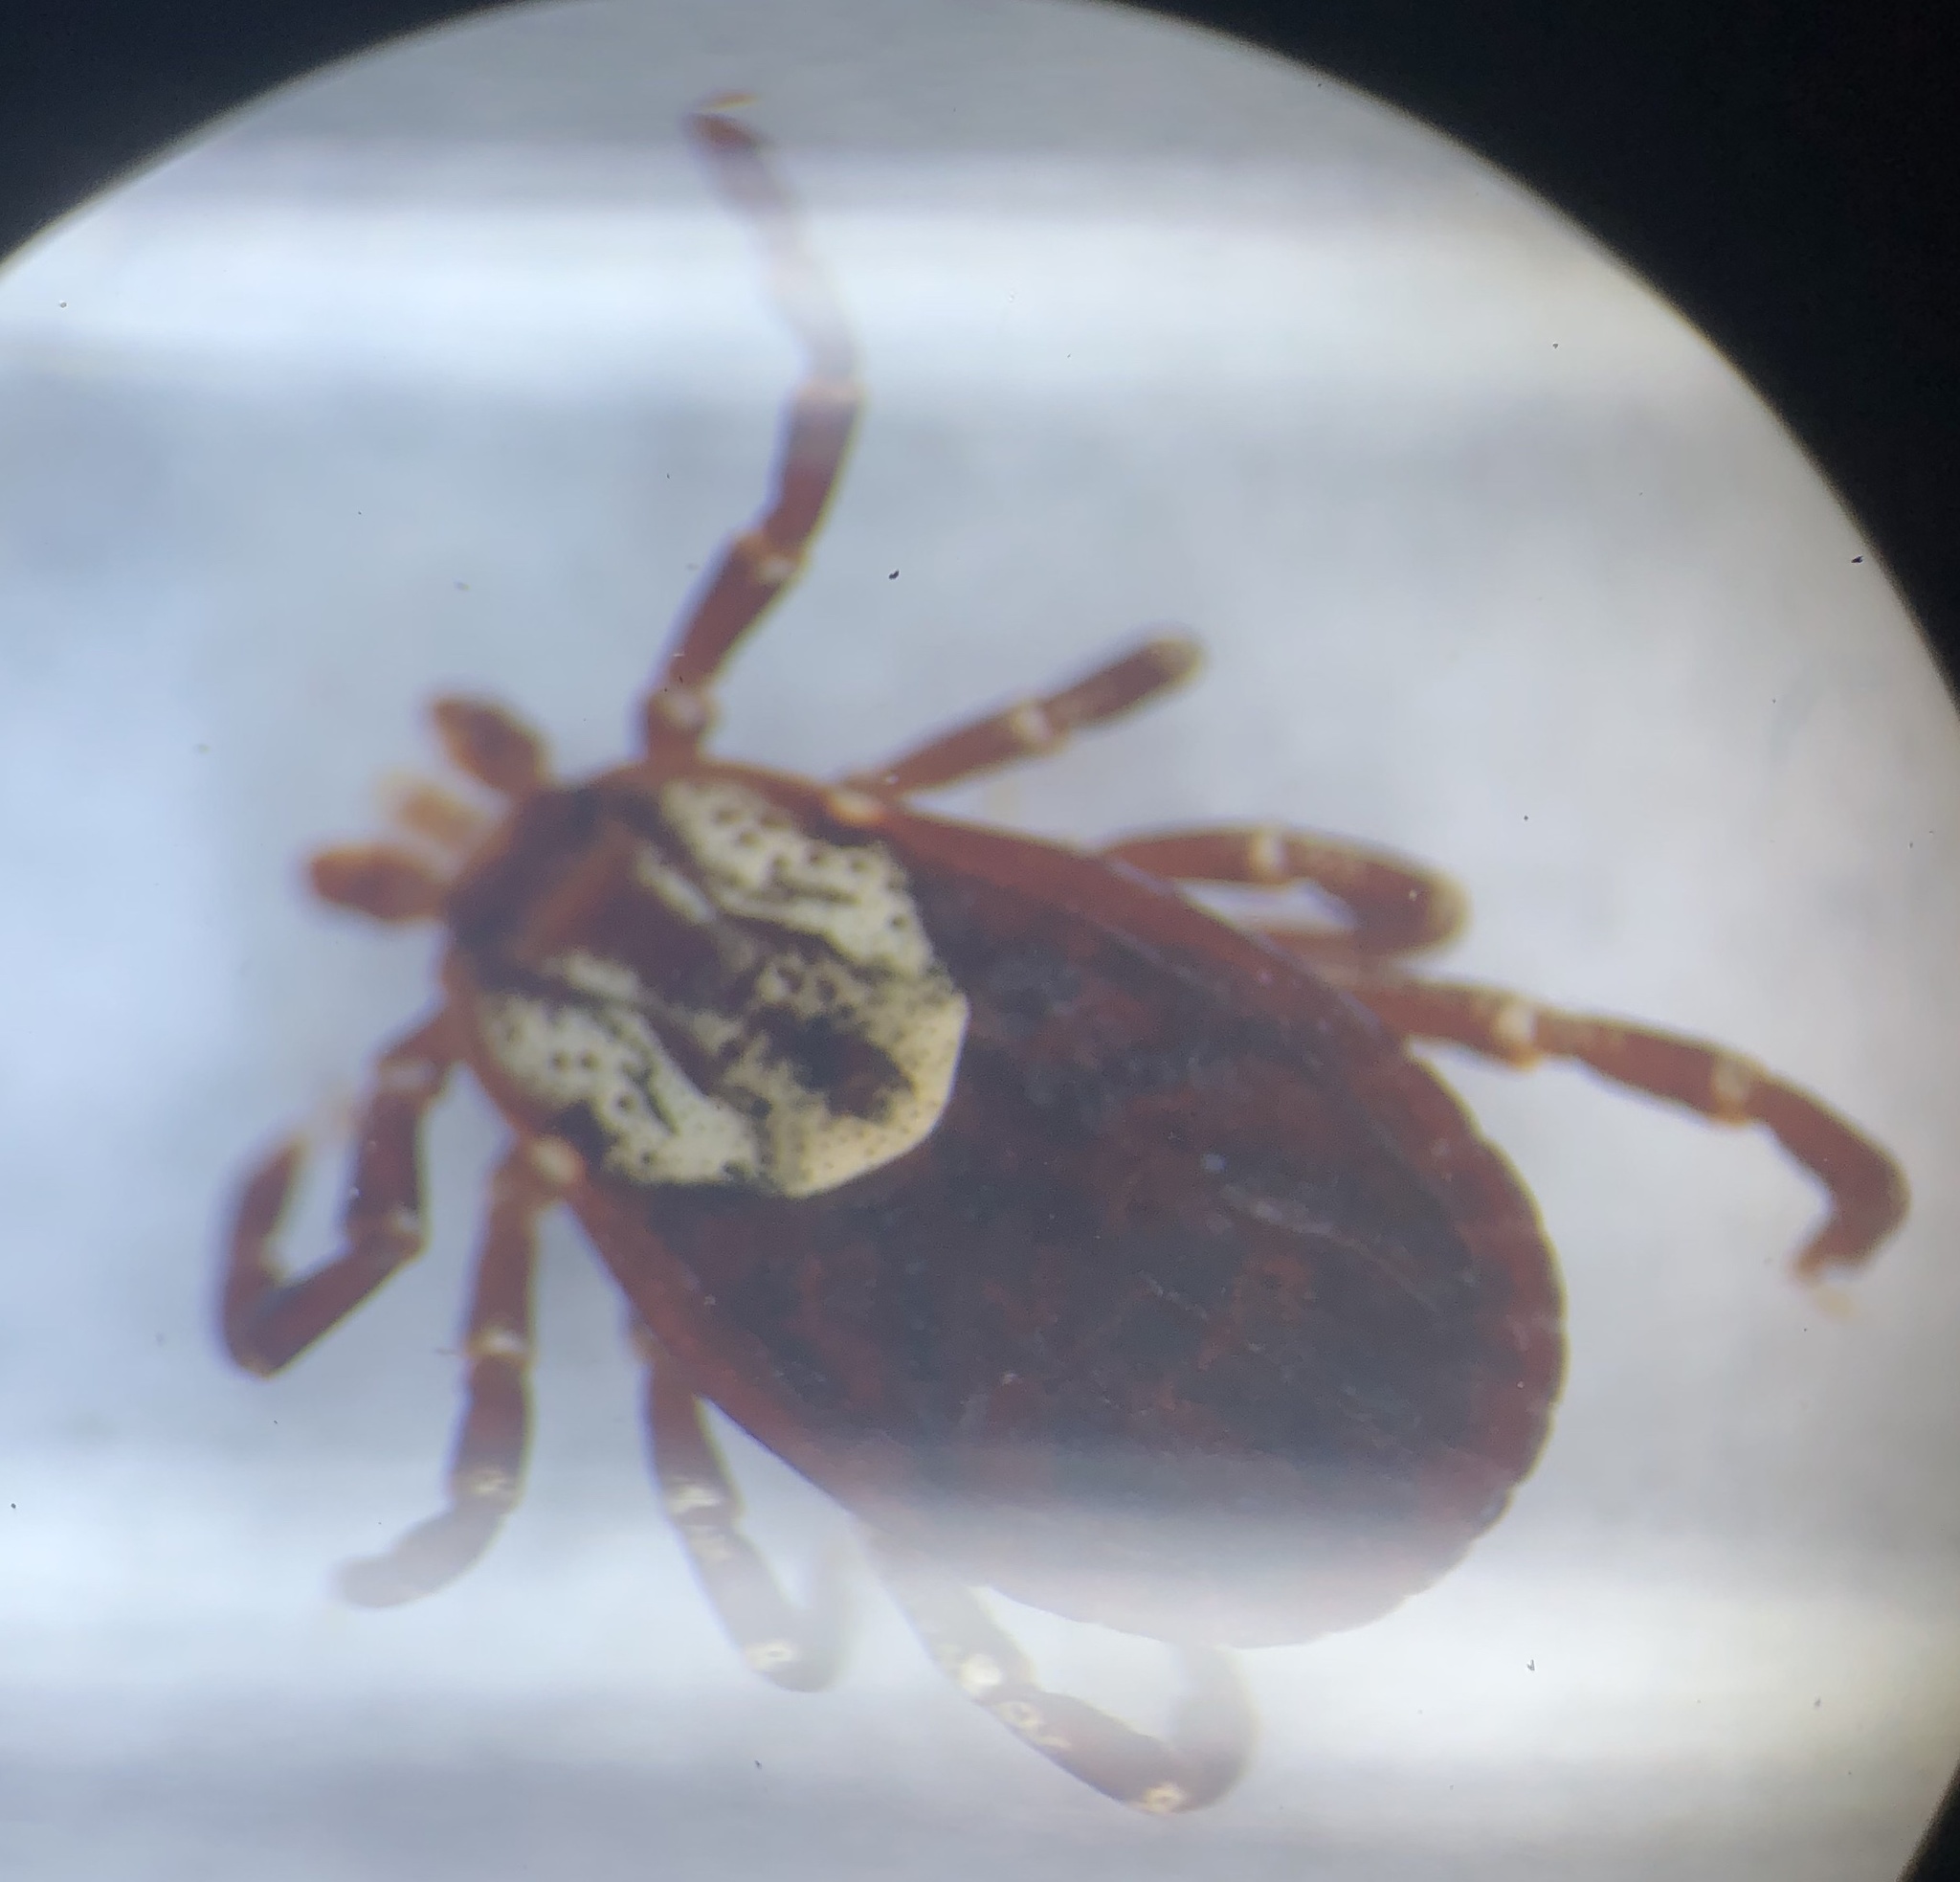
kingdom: Animalia
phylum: Arthropoda
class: Arachnida
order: Ixodida
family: Ixodidae
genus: Dermacentor
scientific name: Dermacentor variabilis
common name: American dog tick
